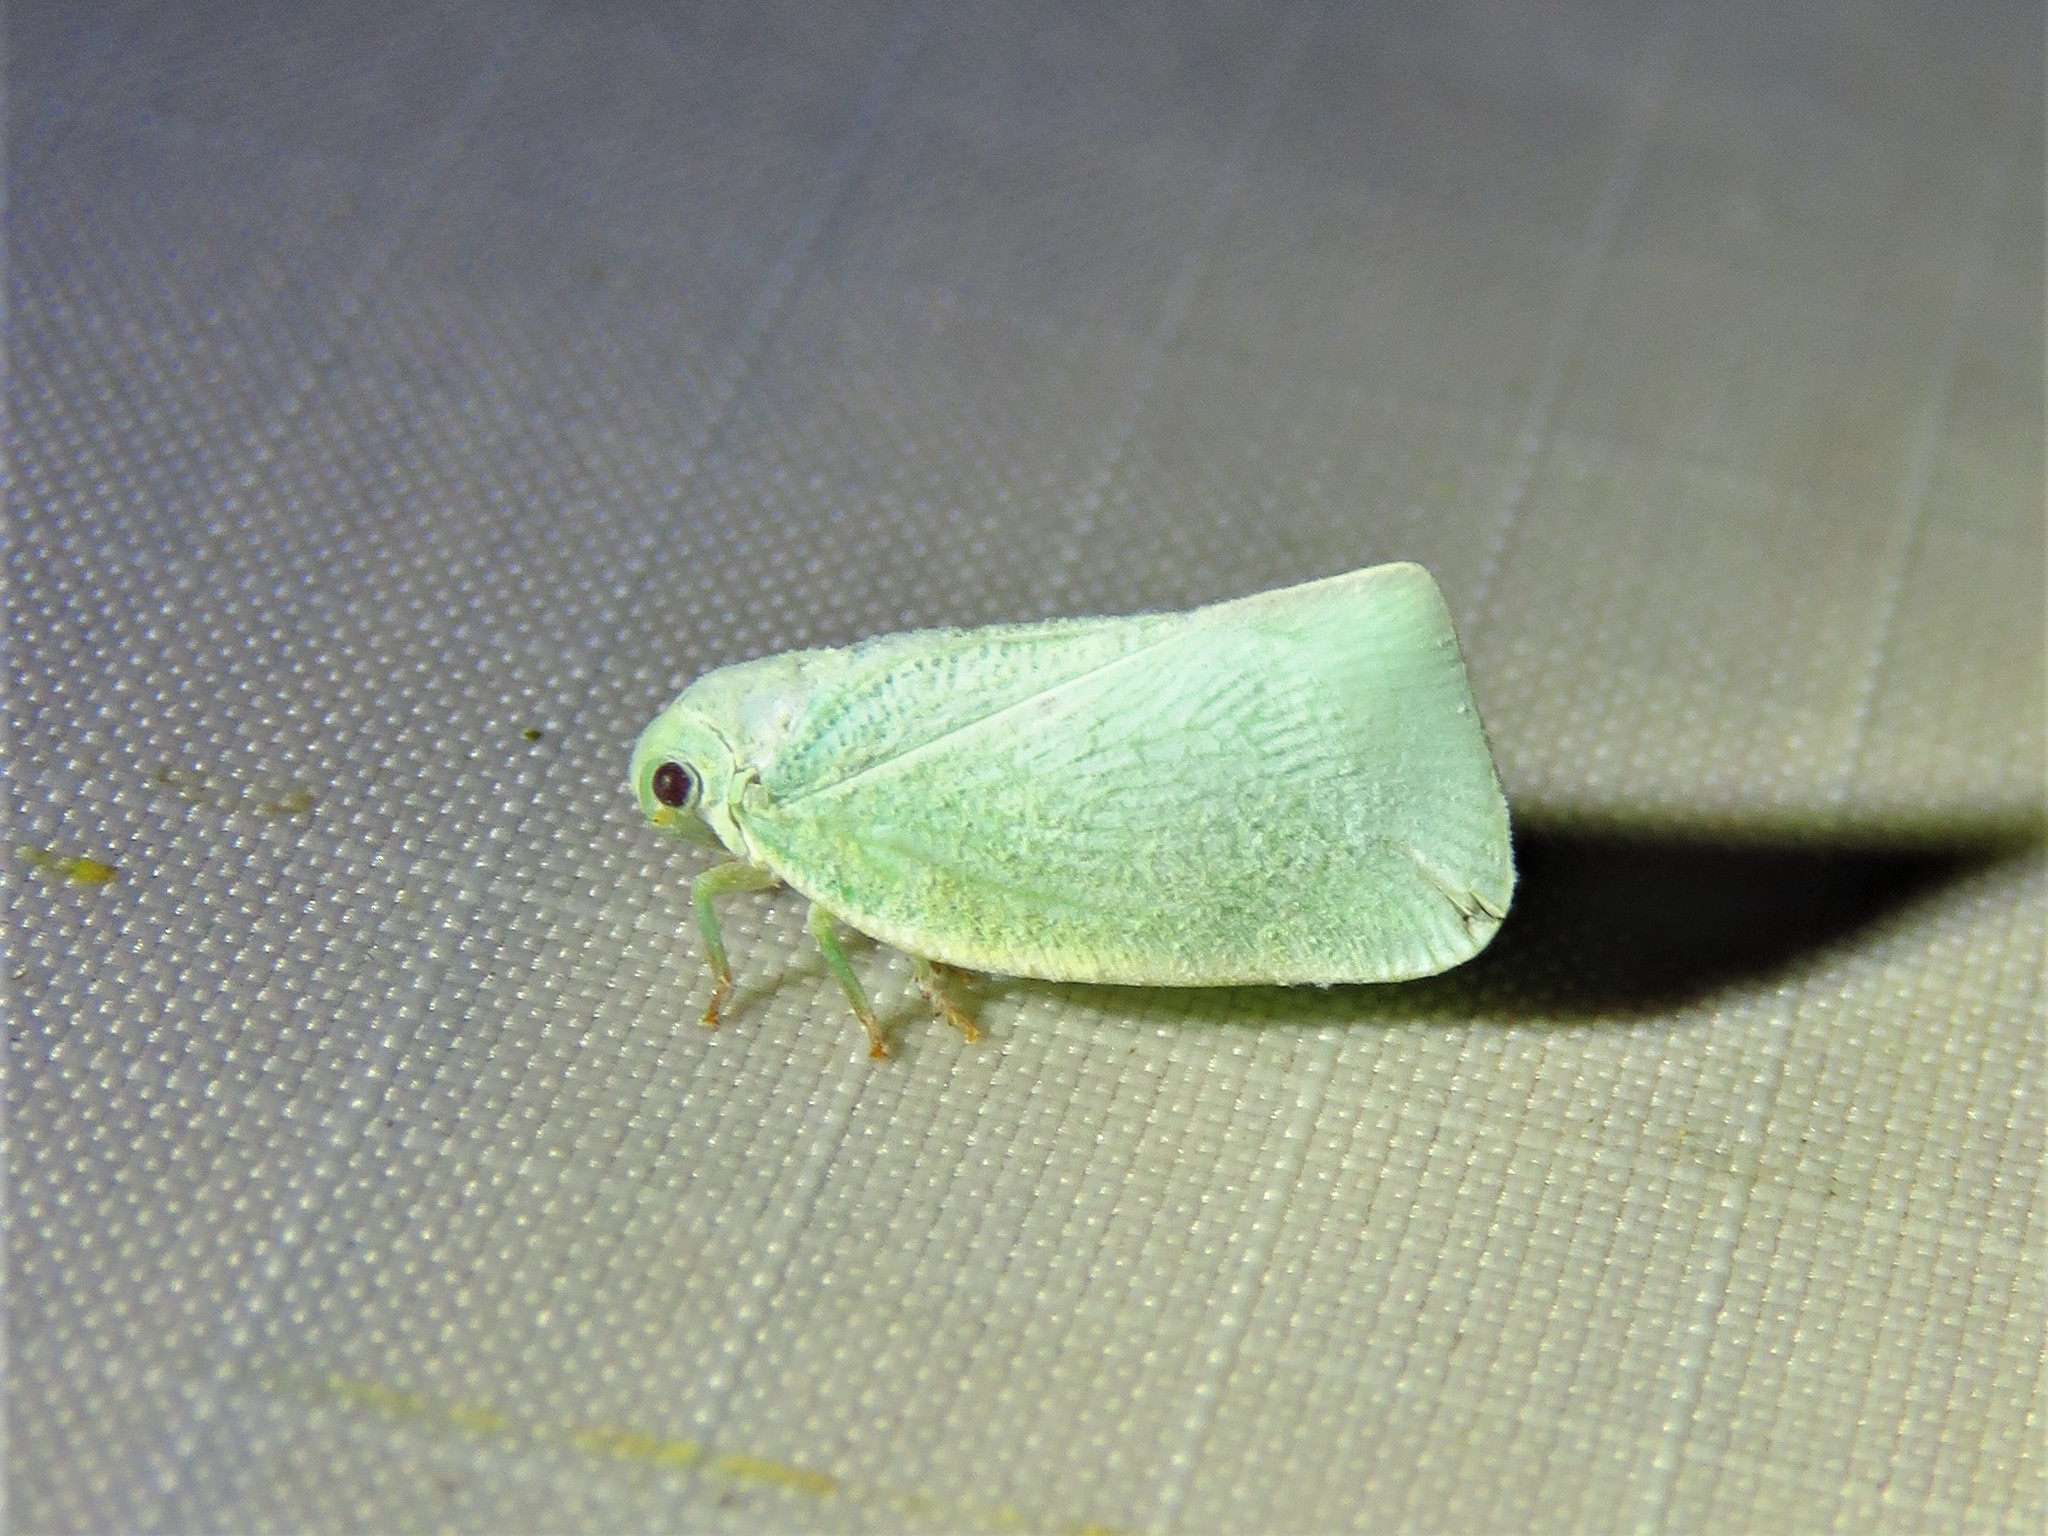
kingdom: Animalia
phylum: Arthropoda
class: Insecta
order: Hemiptera
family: Flatidae
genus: Flatormenis
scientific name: Flatormenis proxima
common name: Northern flatid planthopper
